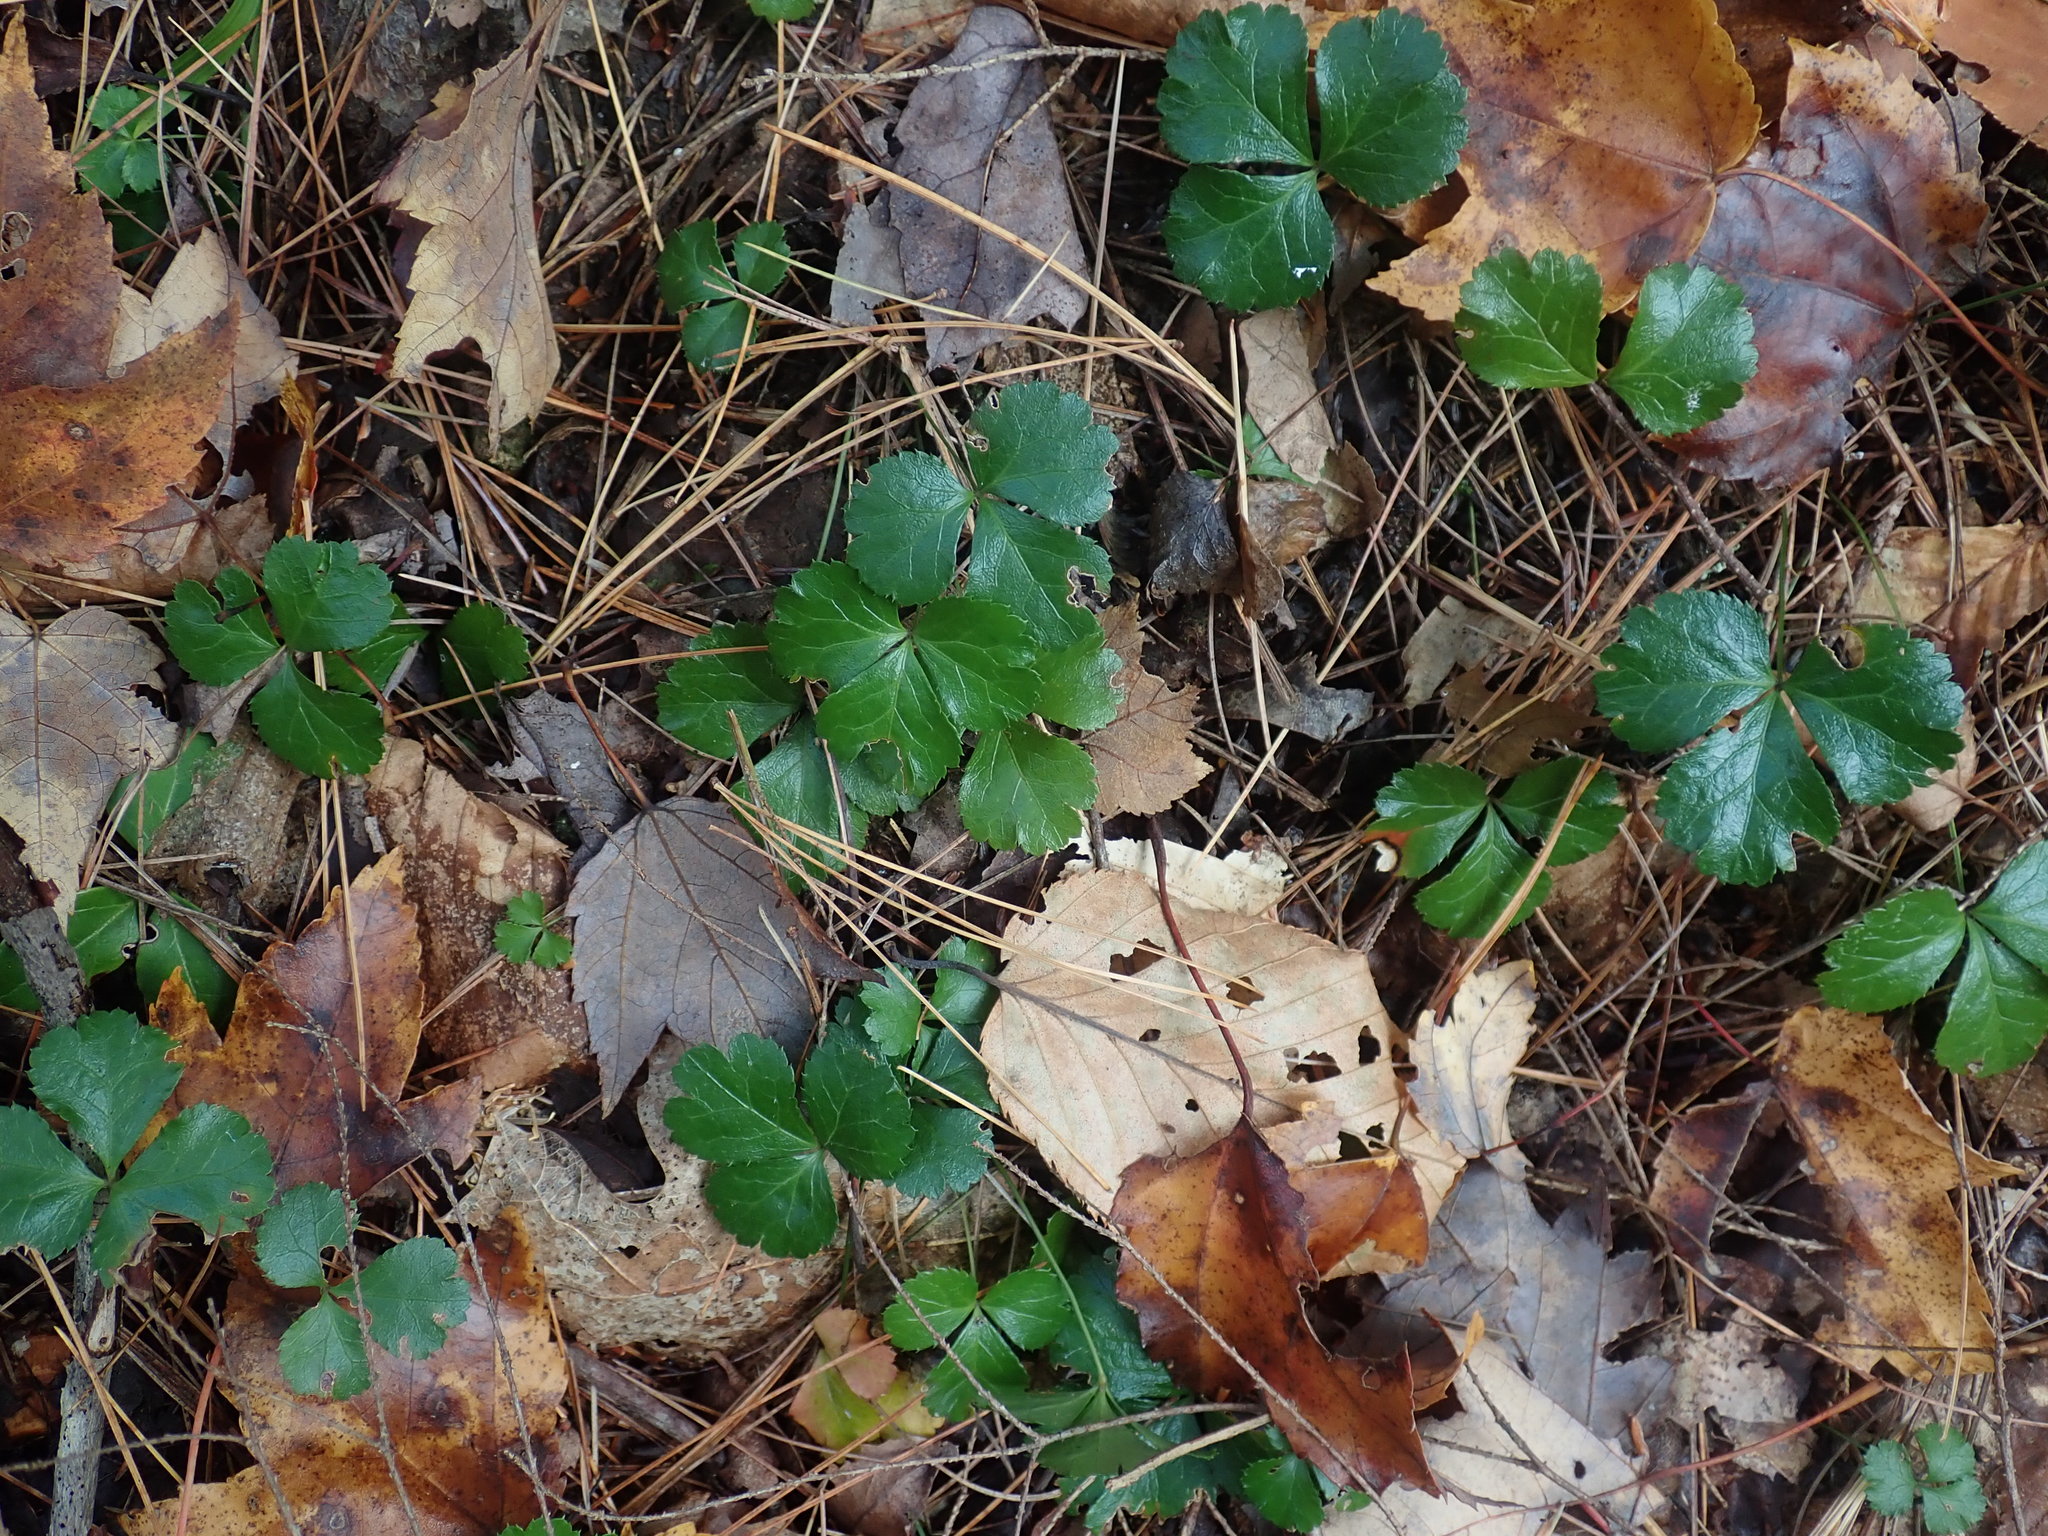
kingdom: Plantae
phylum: Tracheophyta
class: Magnoliopsida
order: Ranunculales
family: Ranunculaceae
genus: Coptis
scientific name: Coptis trifolia
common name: Canker-root
